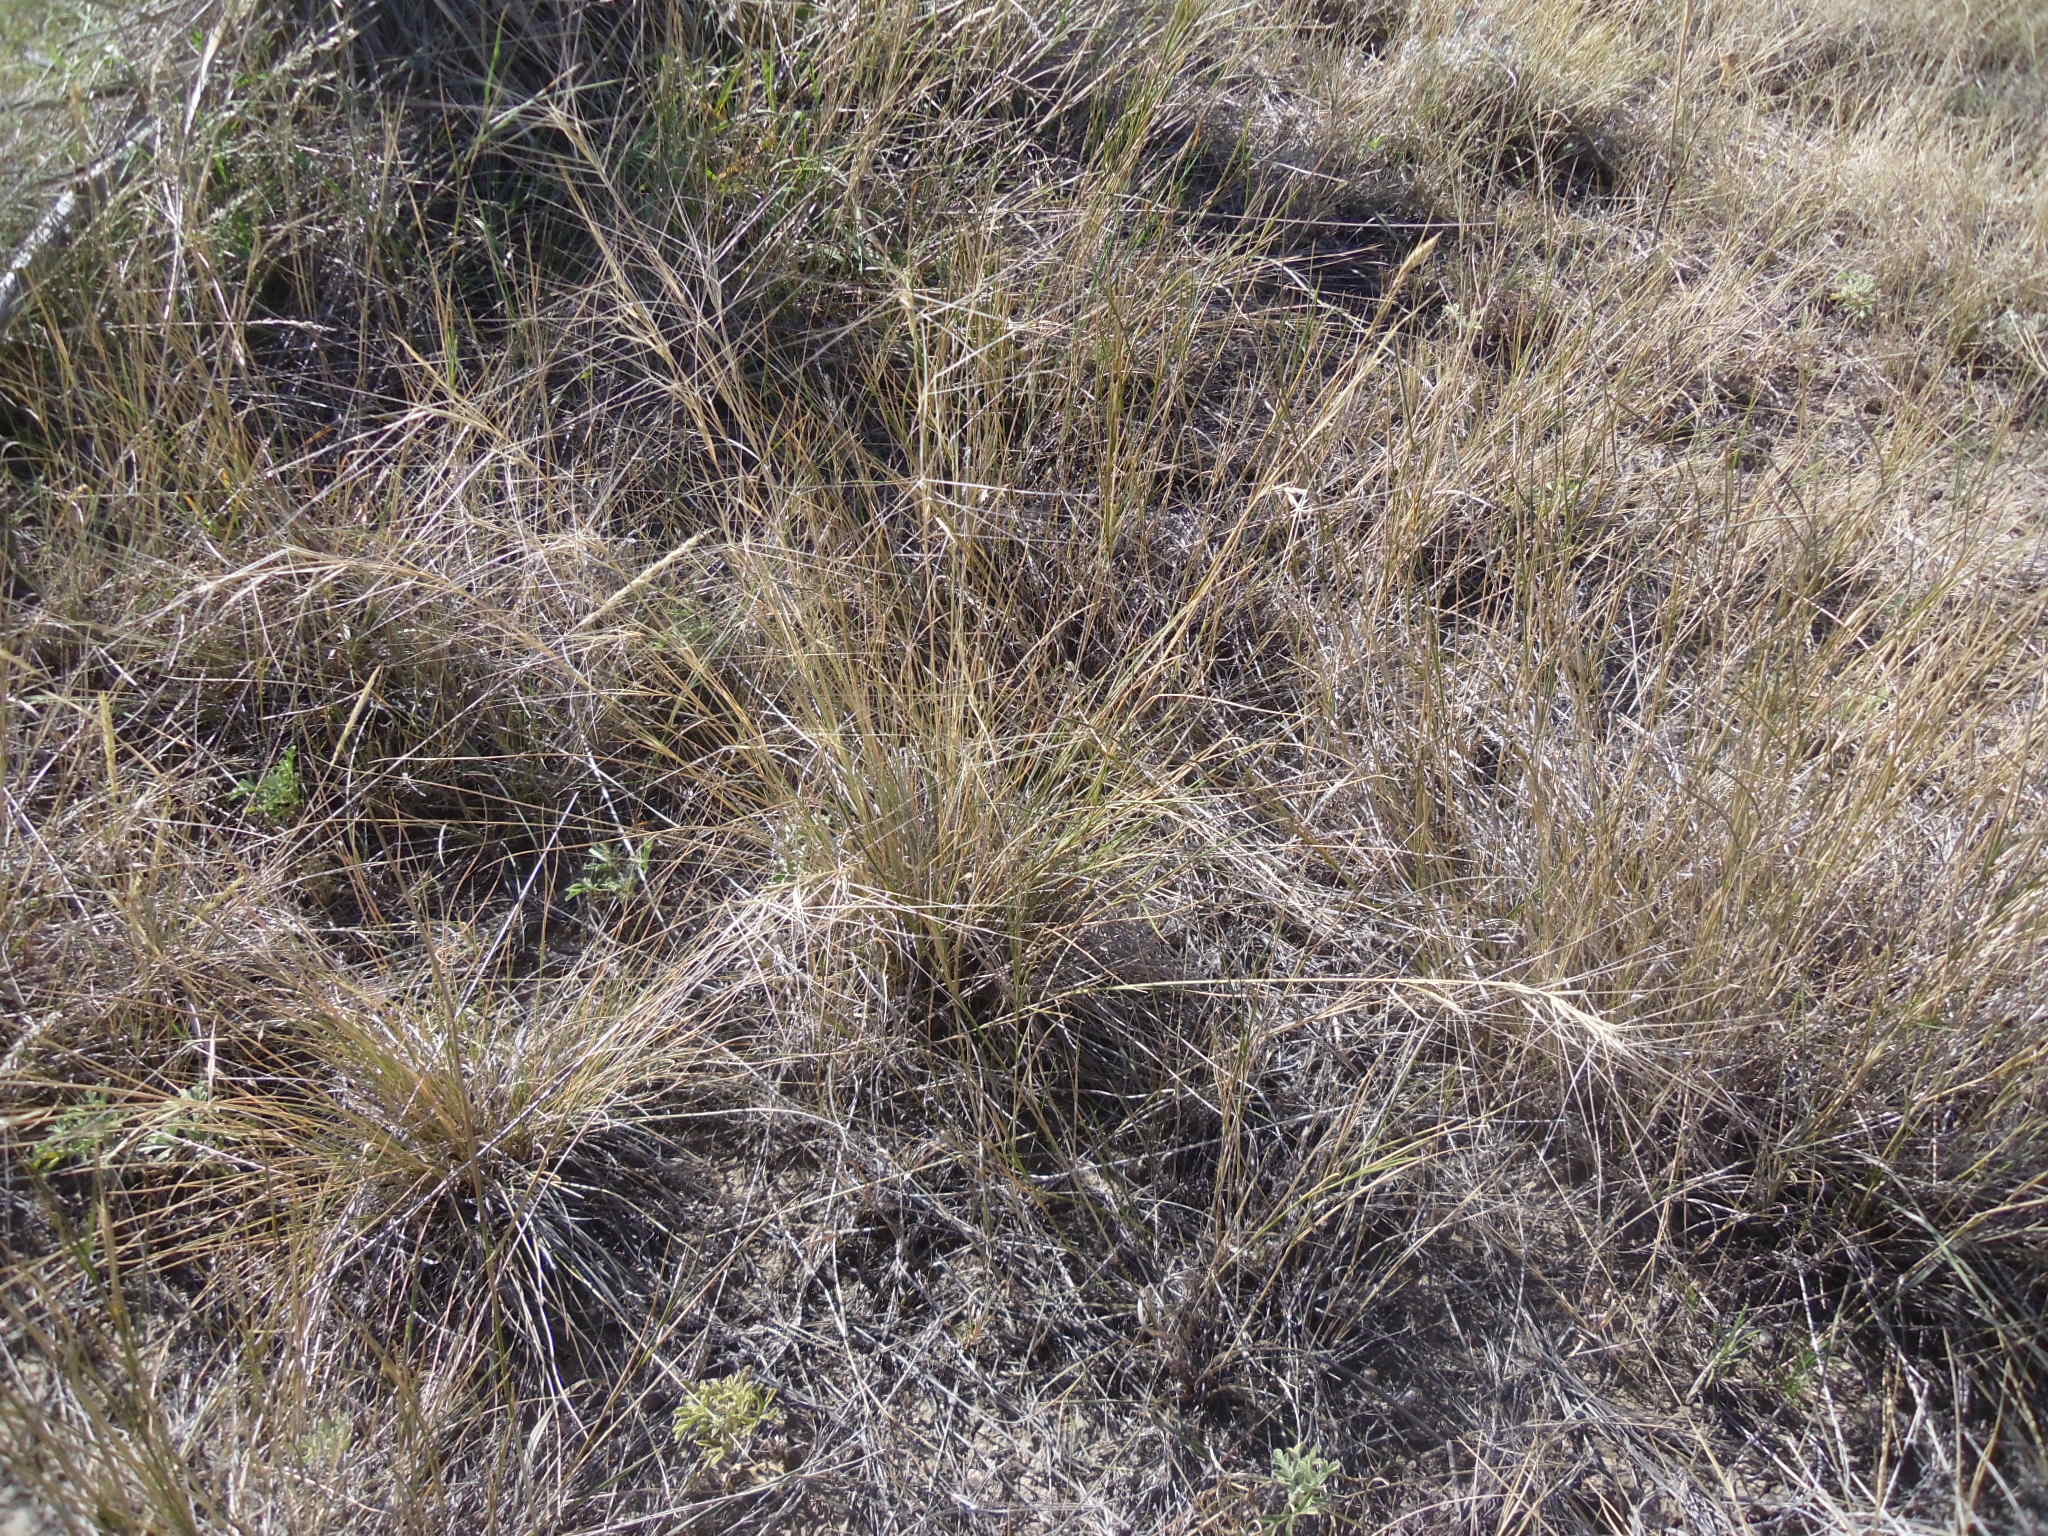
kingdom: Plantae
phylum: Tracheophyta
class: Liliopsida
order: Poales
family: Poaceae
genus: Elymus
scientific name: Elymus elymoides
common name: Bottlebrush squirreltail
